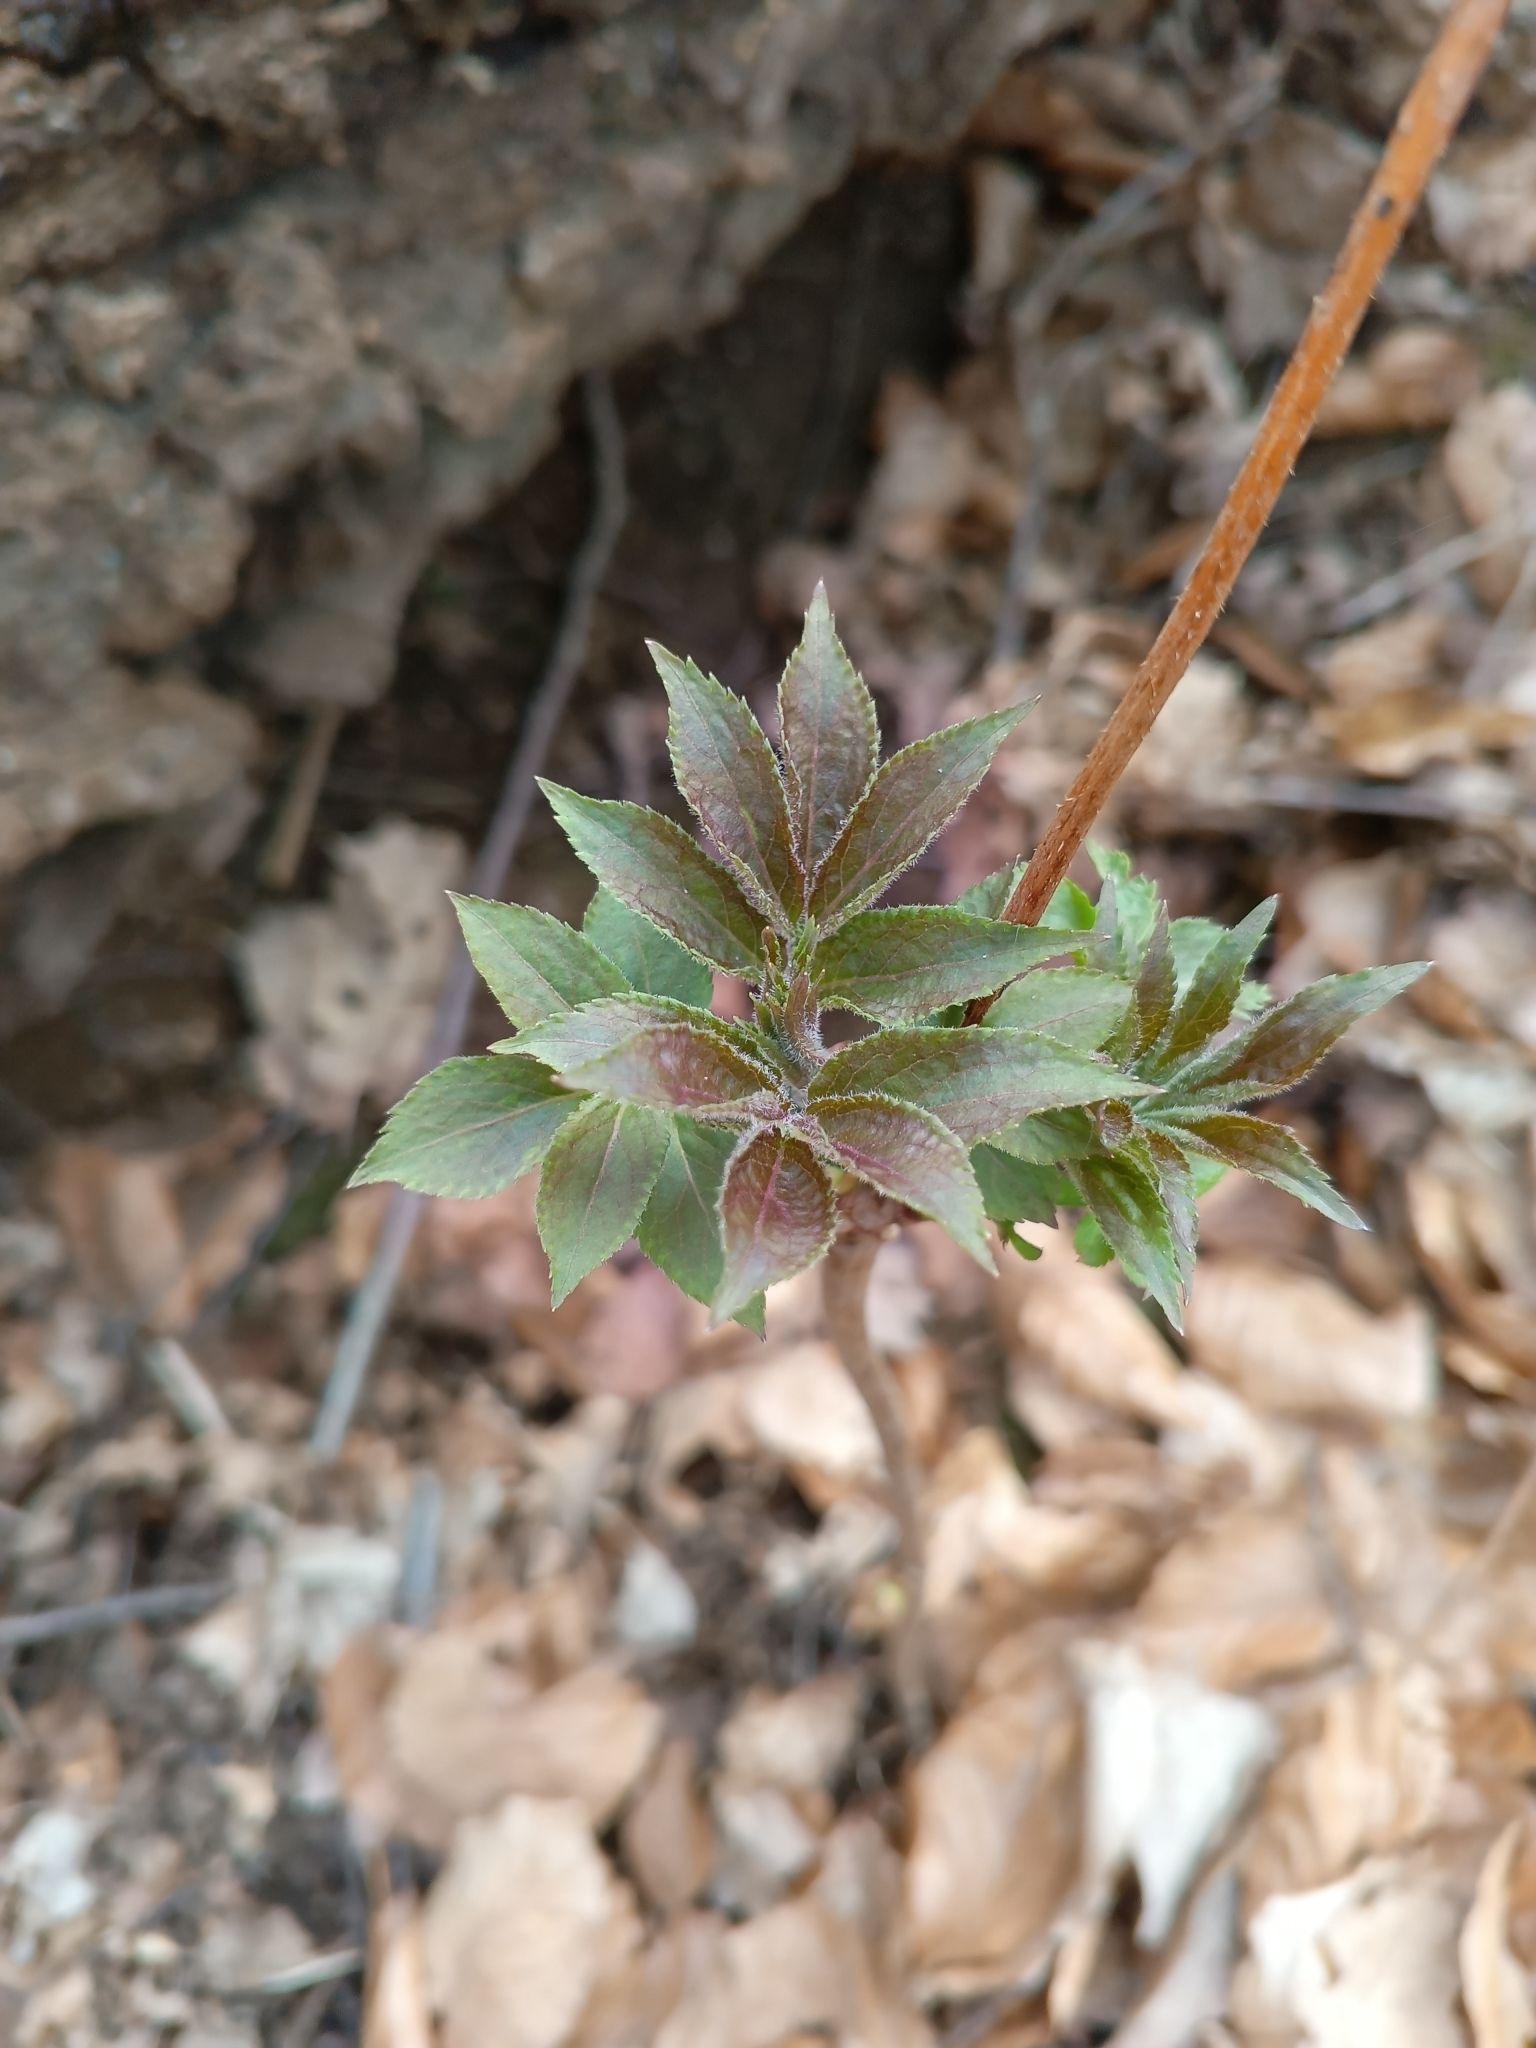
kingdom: Plantae
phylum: Tracheophyta
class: Magnoliopsida
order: Dipsacales
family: Viburnaceae
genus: Sambucus
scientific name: Sambucus racemosa
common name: Red-berried elder
